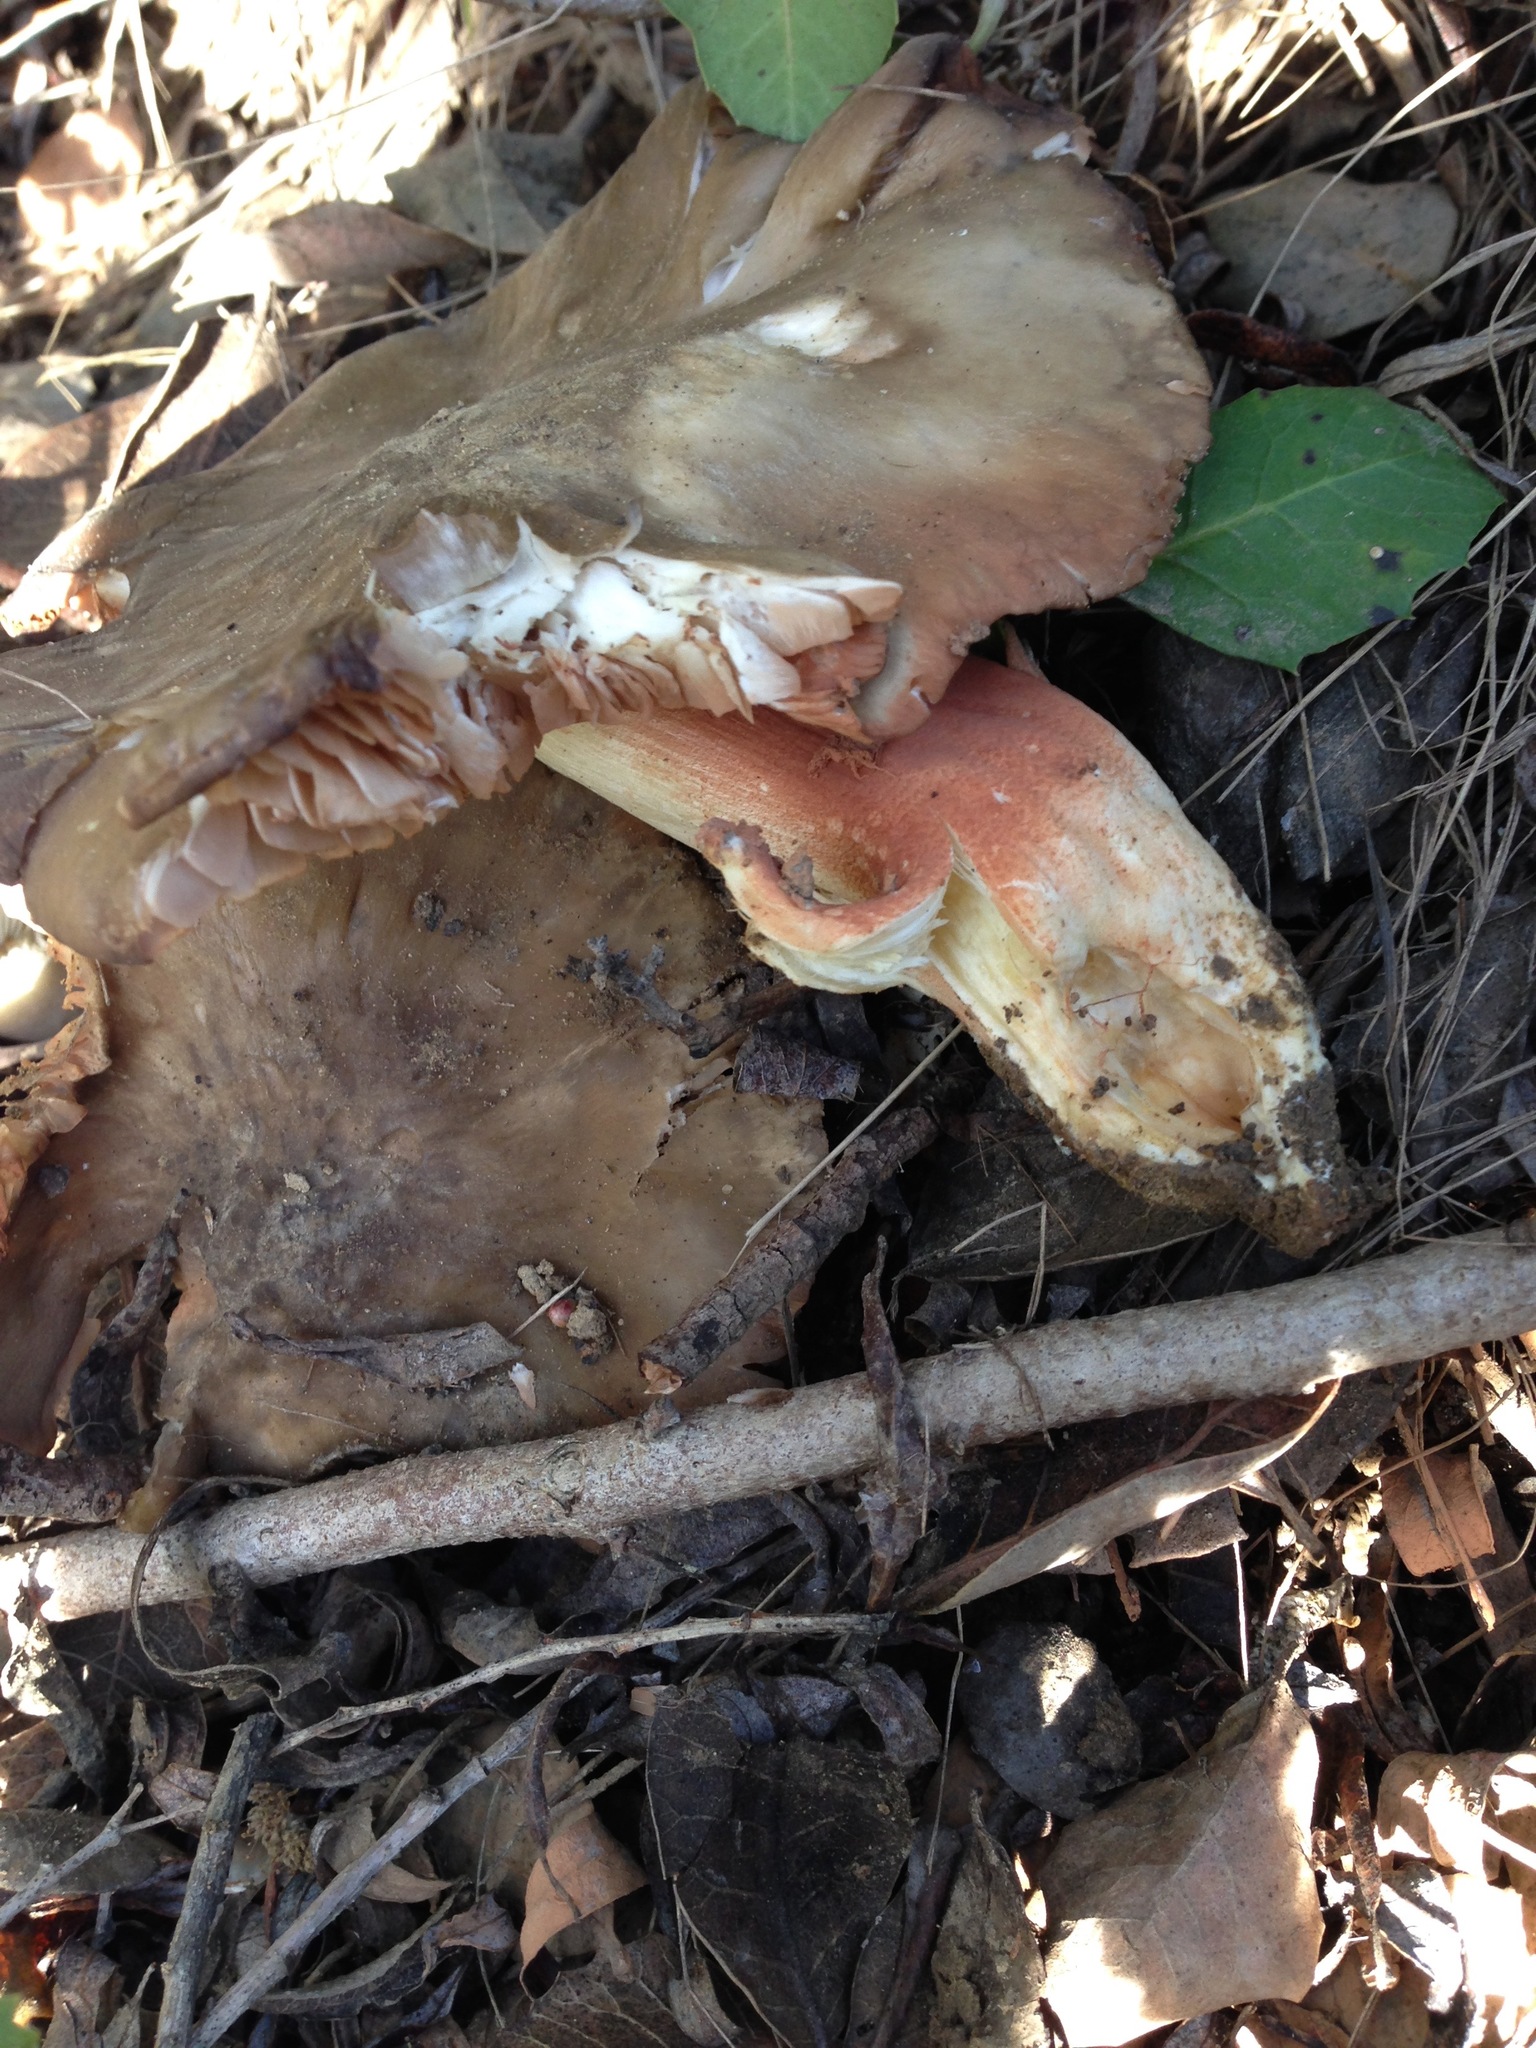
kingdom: Fungi
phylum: Basidiomycota
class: Agaricomycetes
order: Agaricales
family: Entolomataceae
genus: Entoloma
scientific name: Entoloma ferruginans
